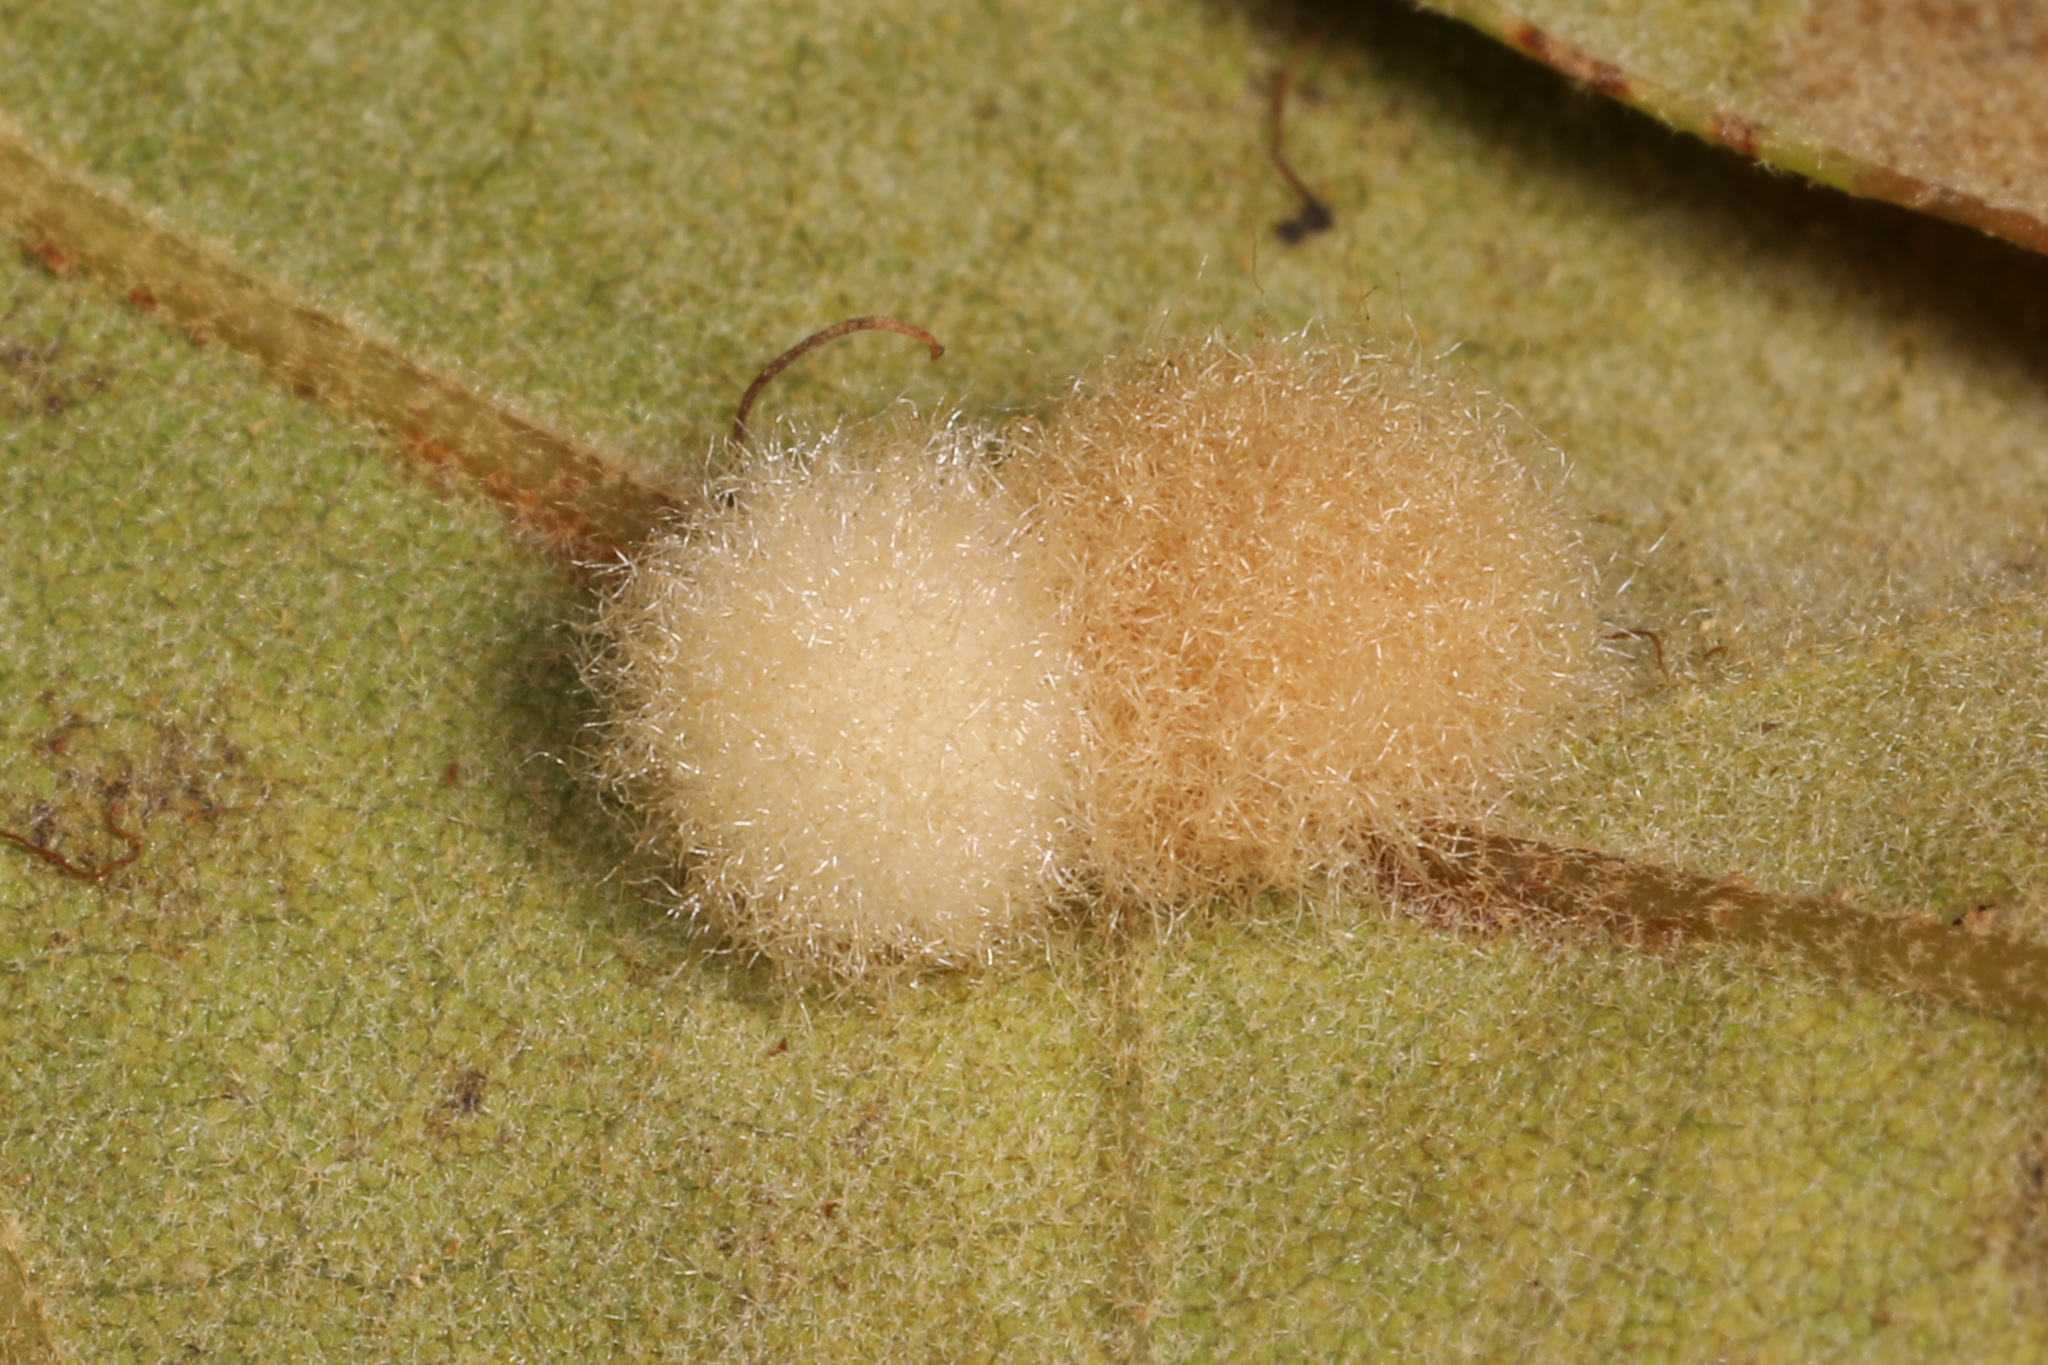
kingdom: Animalia
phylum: Arthropoda
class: Insecta
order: Hymenoptera
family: Cynipidae
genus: Callirhytis
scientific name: Callirhytis
